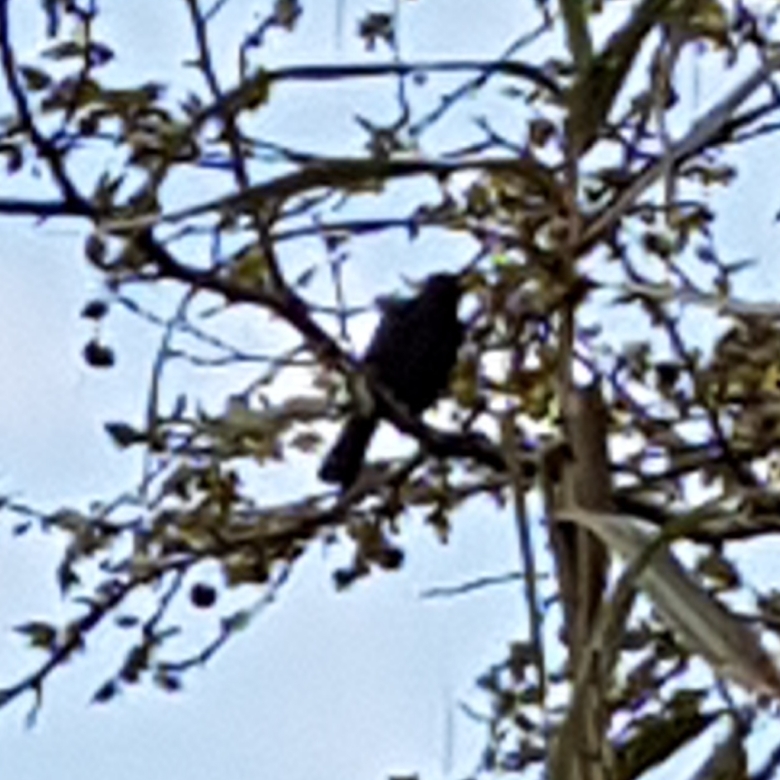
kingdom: Animalia
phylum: Chordata
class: Aves
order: Passeriformes
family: Turdidae
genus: Turdus
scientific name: Turdus merula
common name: Common blackbird
